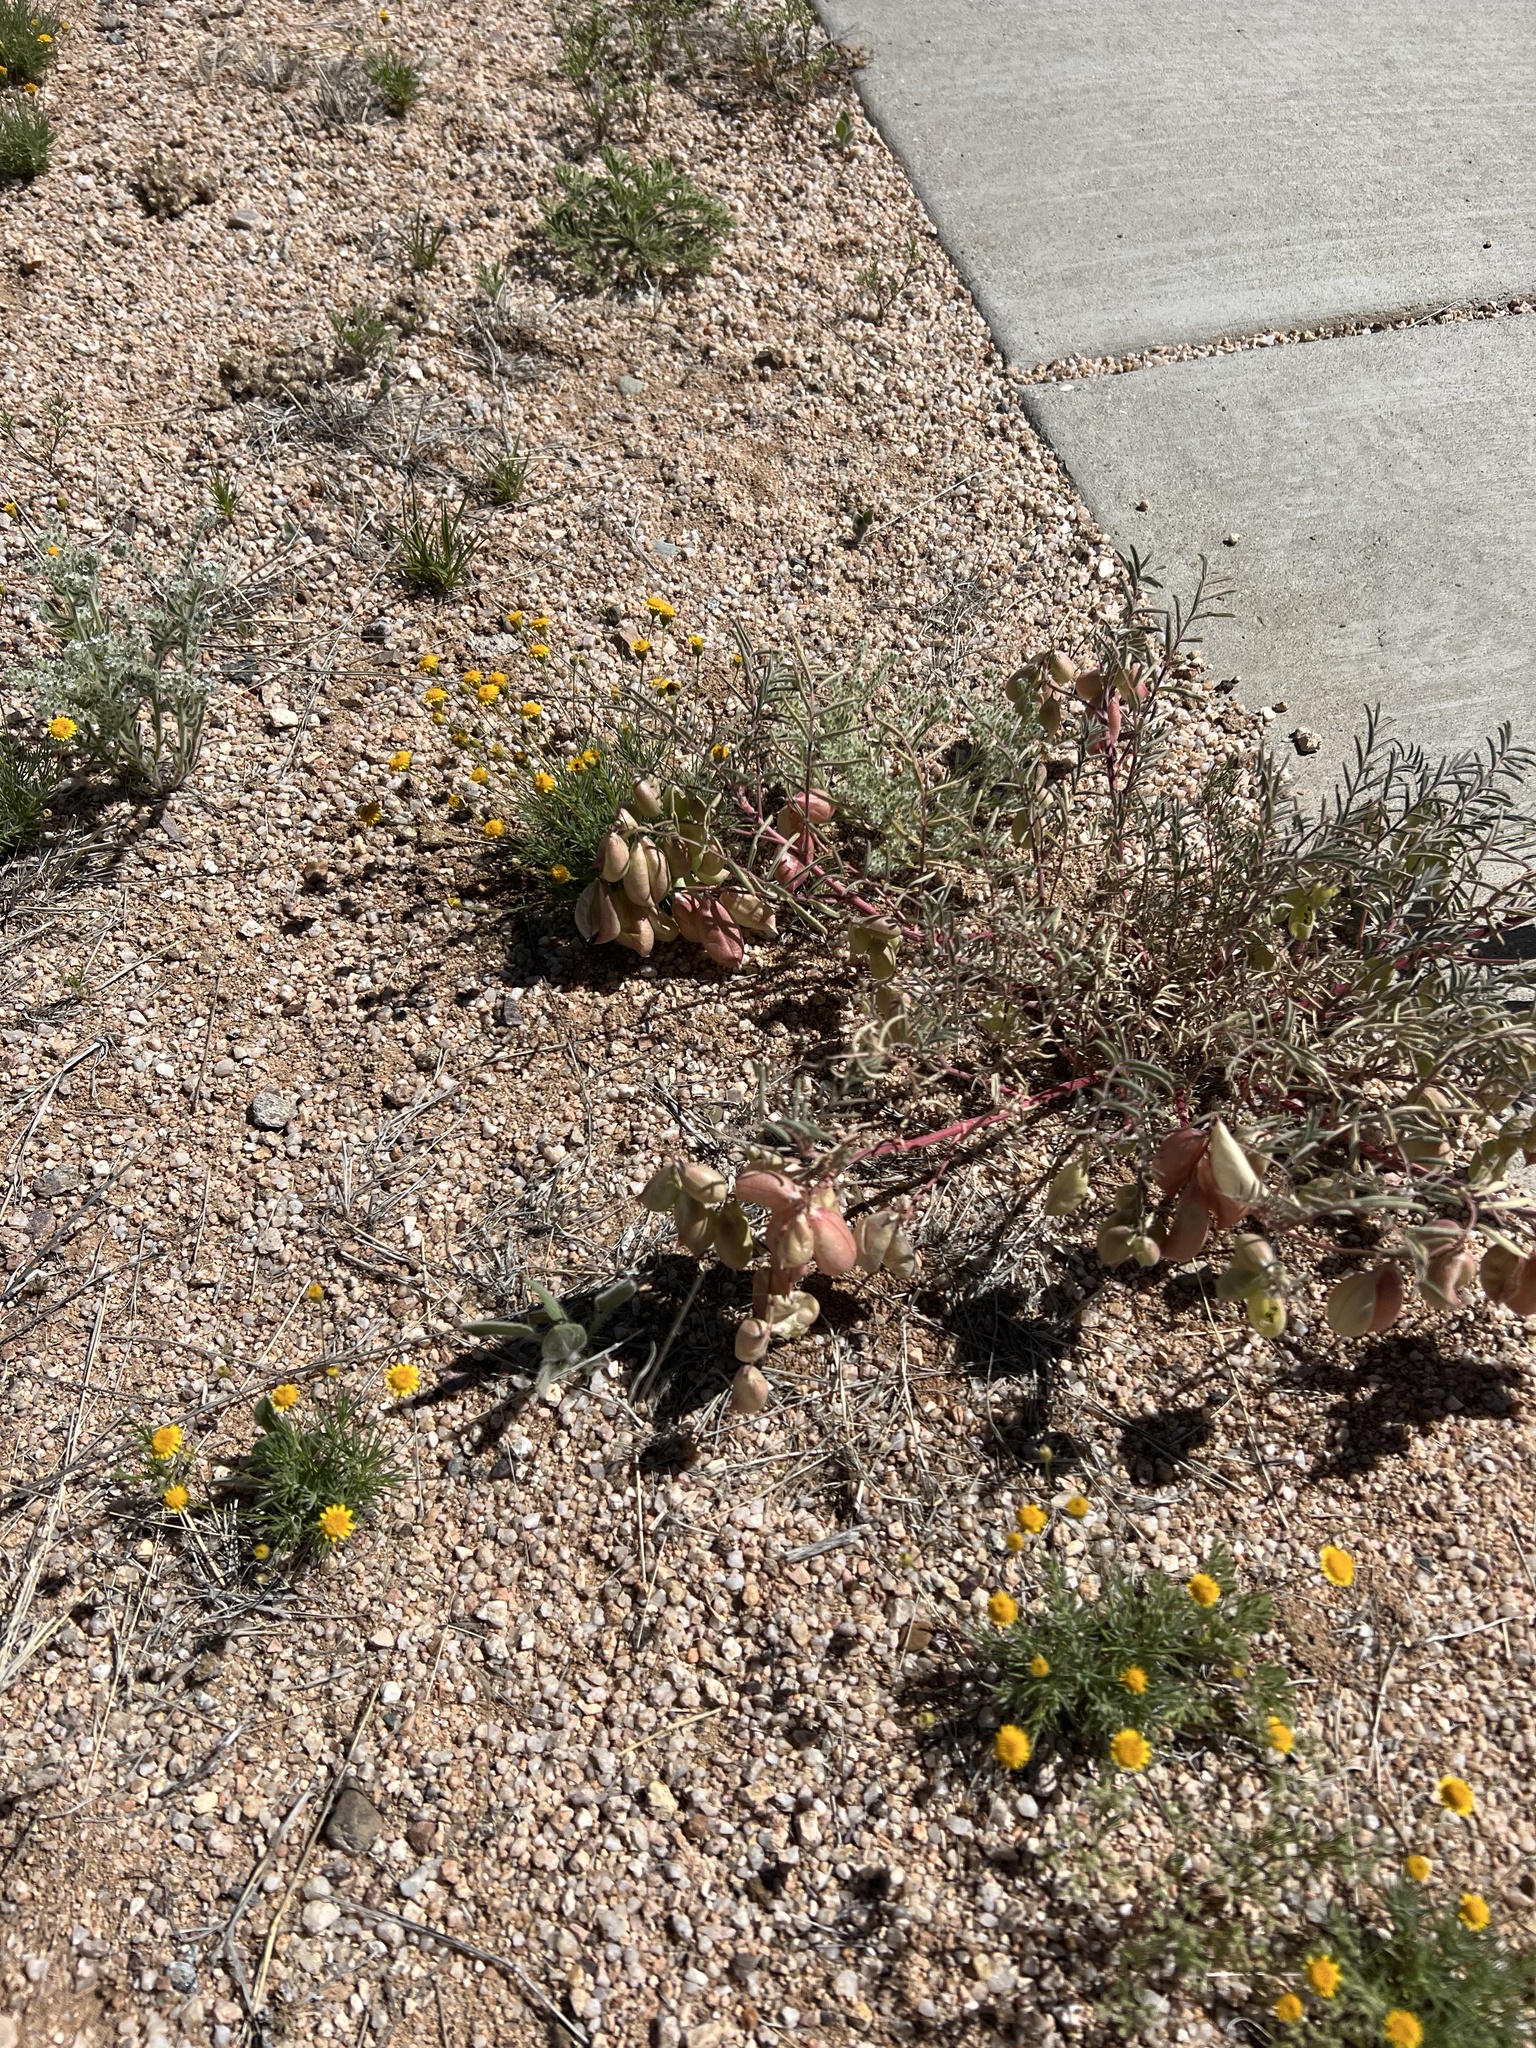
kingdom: Plantae
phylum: Tracheophyta
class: Magnoliopsida
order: Fabales
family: Fabaceae
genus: Astragalus
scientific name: Astragalus allochrous
